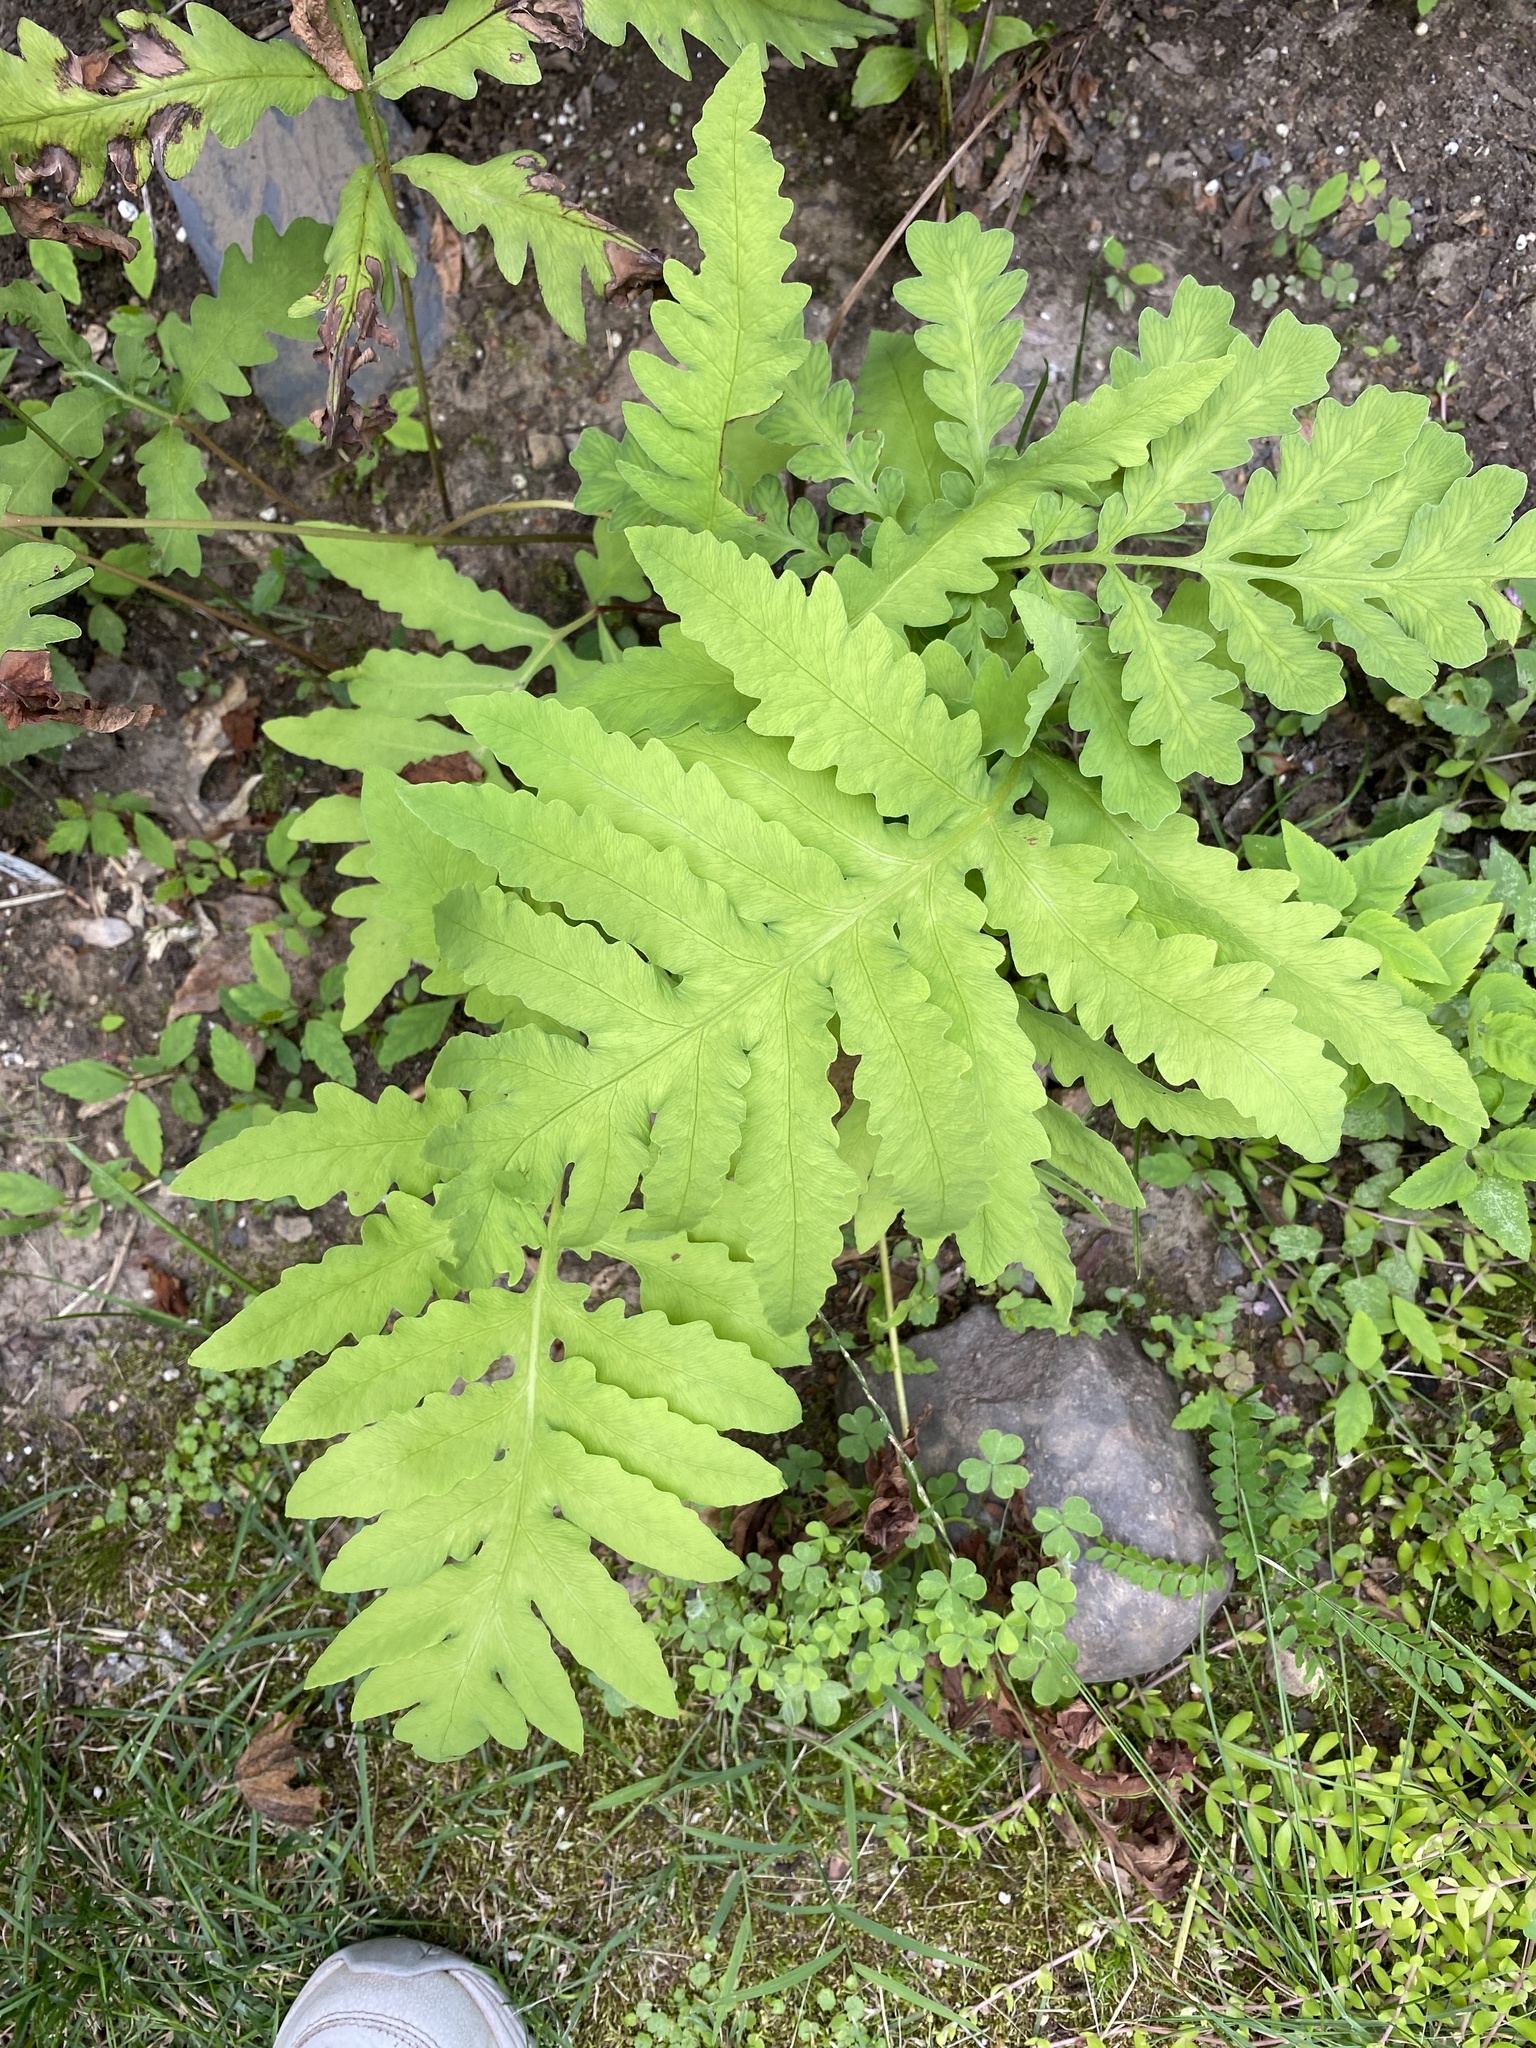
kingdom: Plantae
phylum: Tracheophyta
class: Polypodiopsida
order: Polypodiales
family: Onocleaceae
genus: Onoclea
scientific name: Onoclea sensibilis
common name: Sensitive fern
